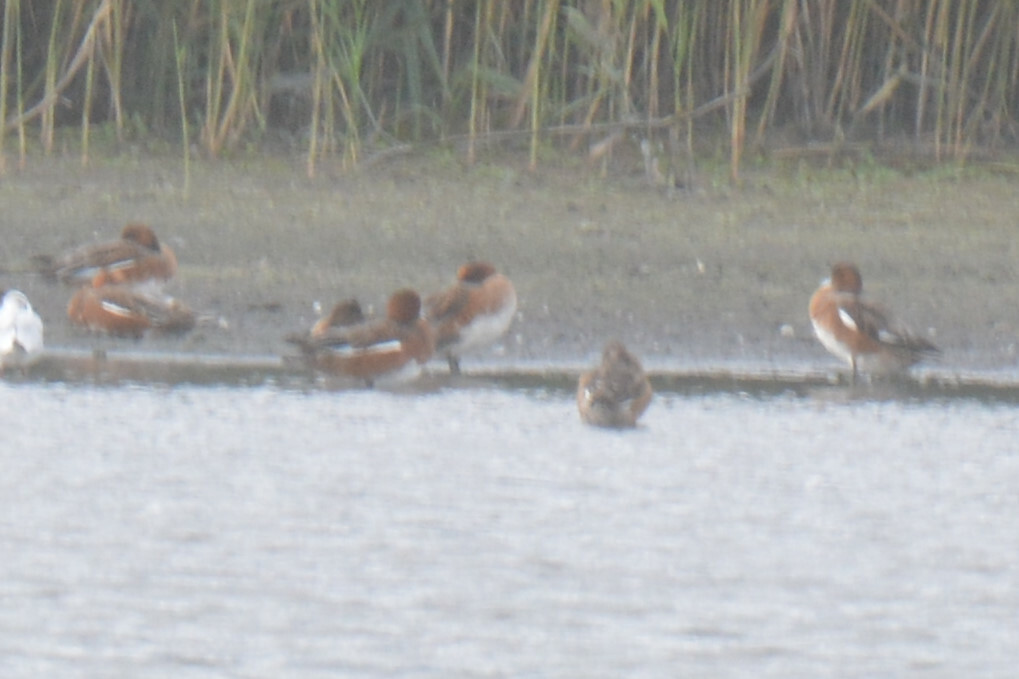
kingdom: Animalia
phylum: Chordata
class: Aves
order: Anseriformes
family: Anatidae
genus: Mareca
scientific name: Mareca penelope
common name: Eurasian wigeon
